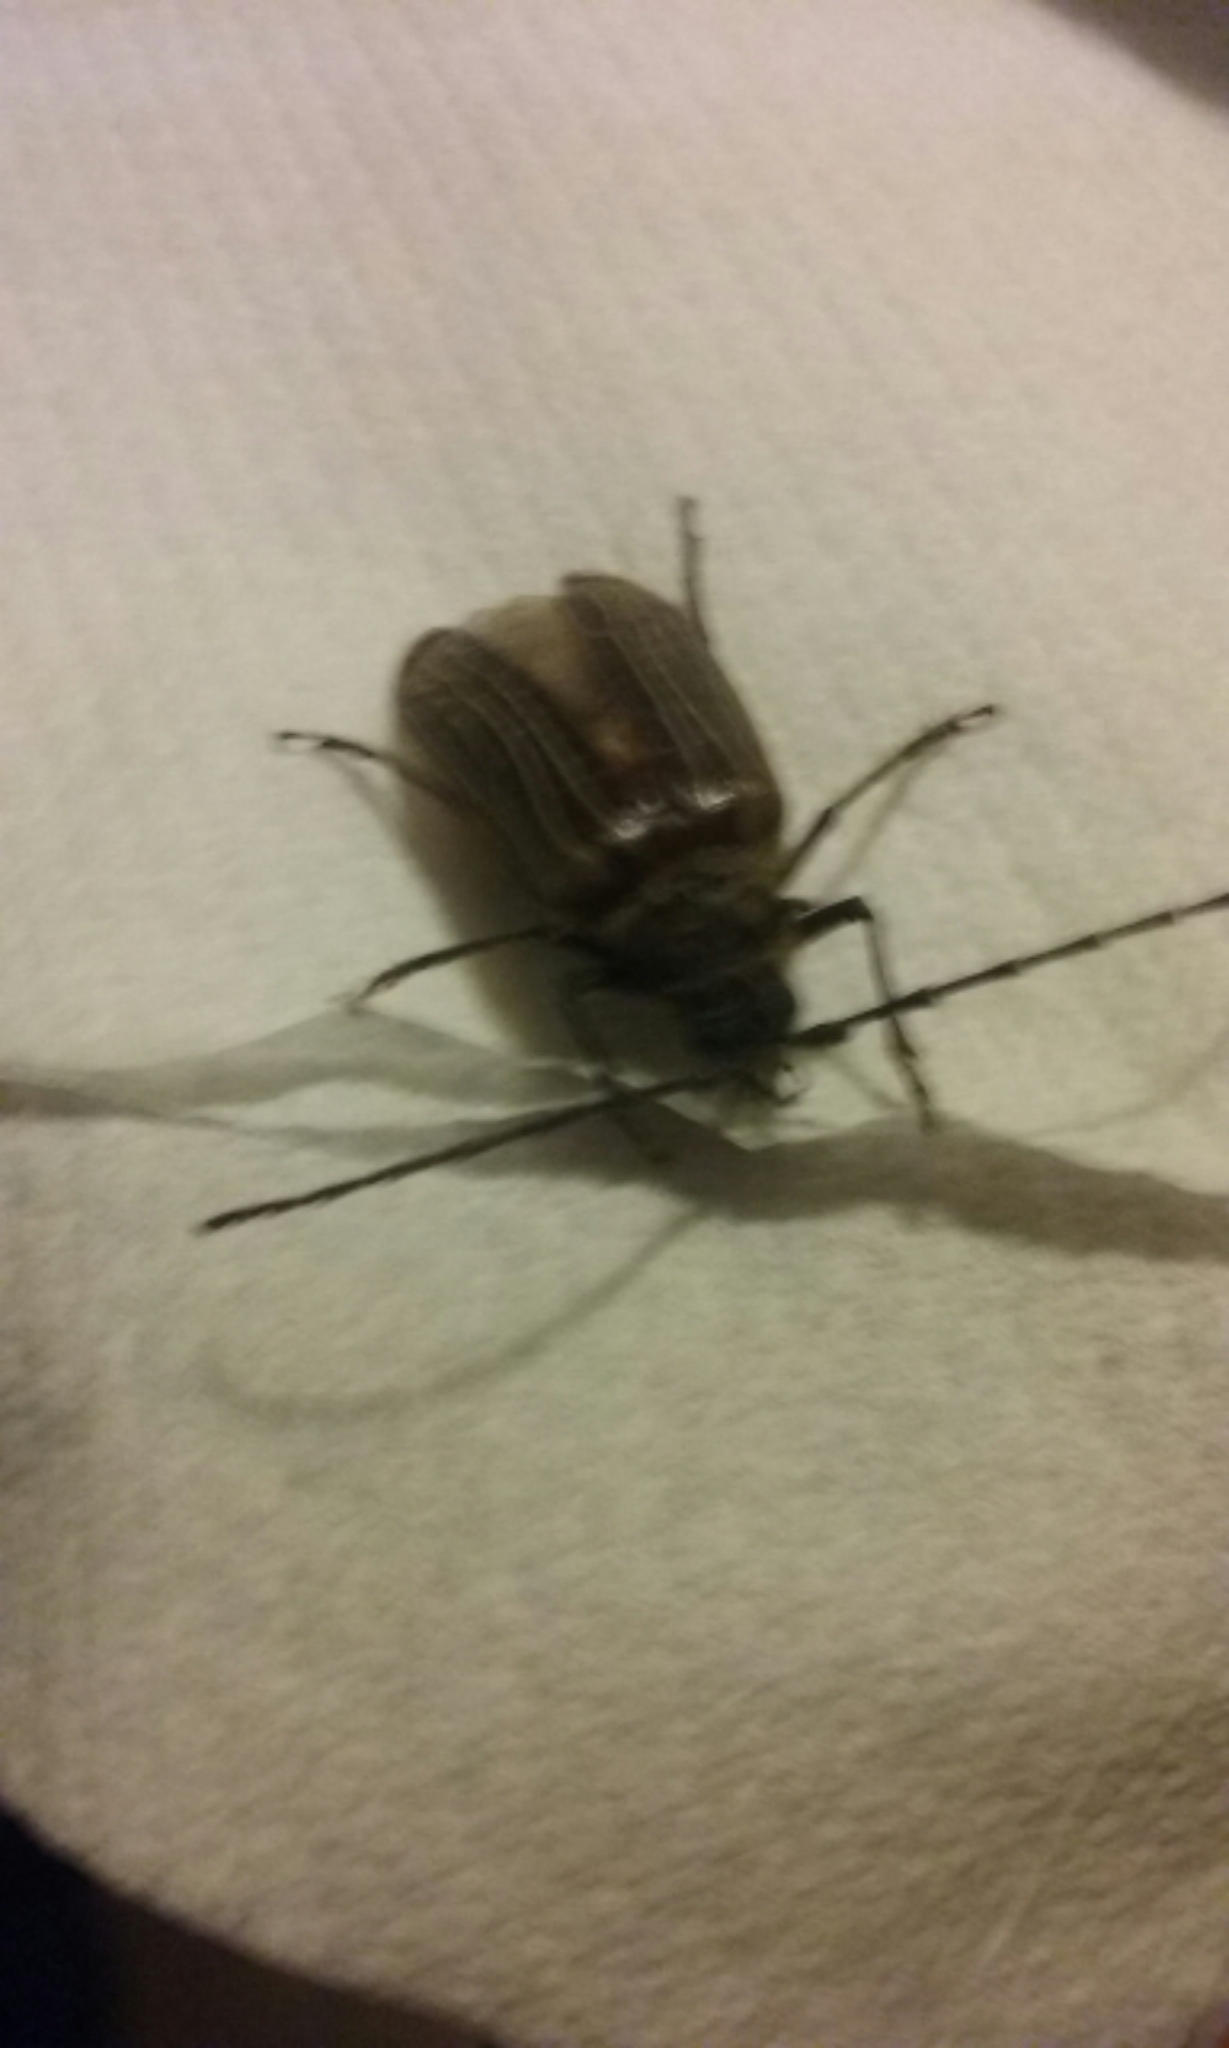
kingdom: Animalia
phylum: Arthropoda
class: Insecta
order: Coleoptera
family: Cerambycidae
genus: Prionoplus
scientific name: Prionoplus reticularis
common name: Huhu beetle
